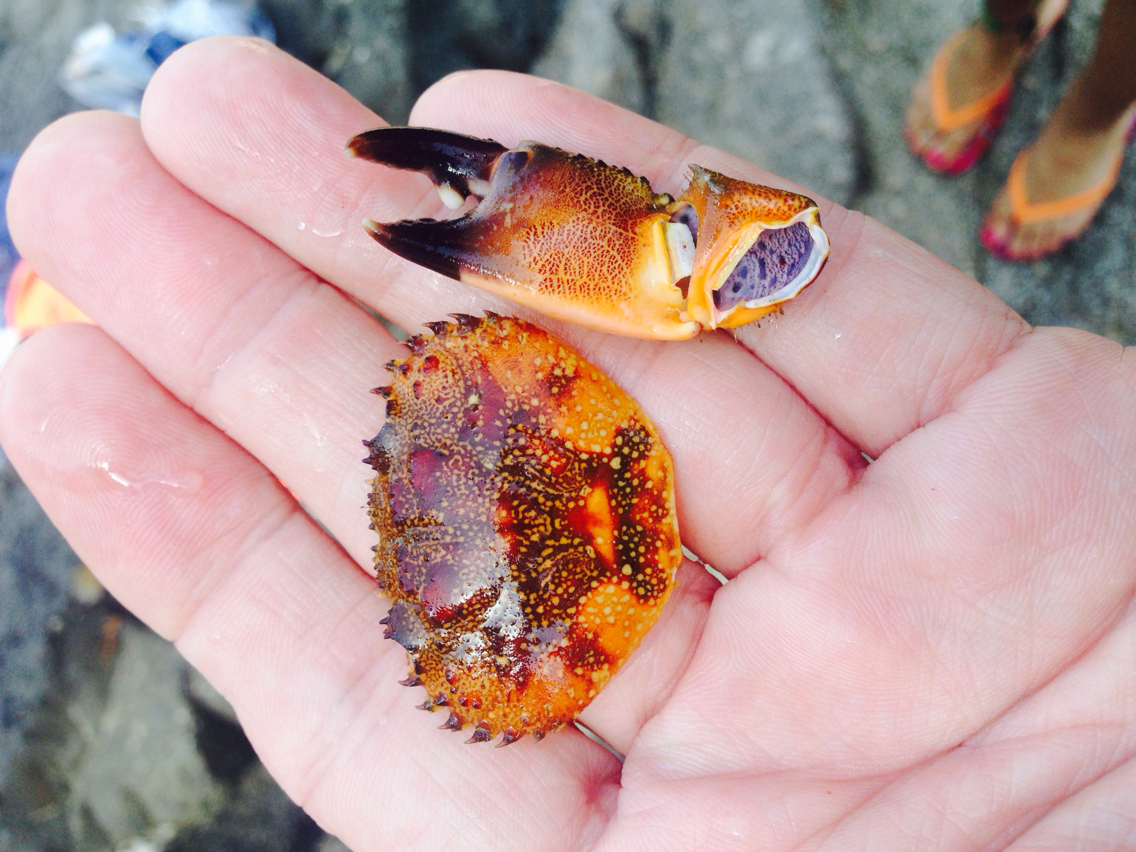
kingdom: Animalia
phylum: Arthropoda
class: Malacostraca
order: Decapoda
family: Eriphiidae
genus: Eriphia
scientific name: Eriphia verrucosa
